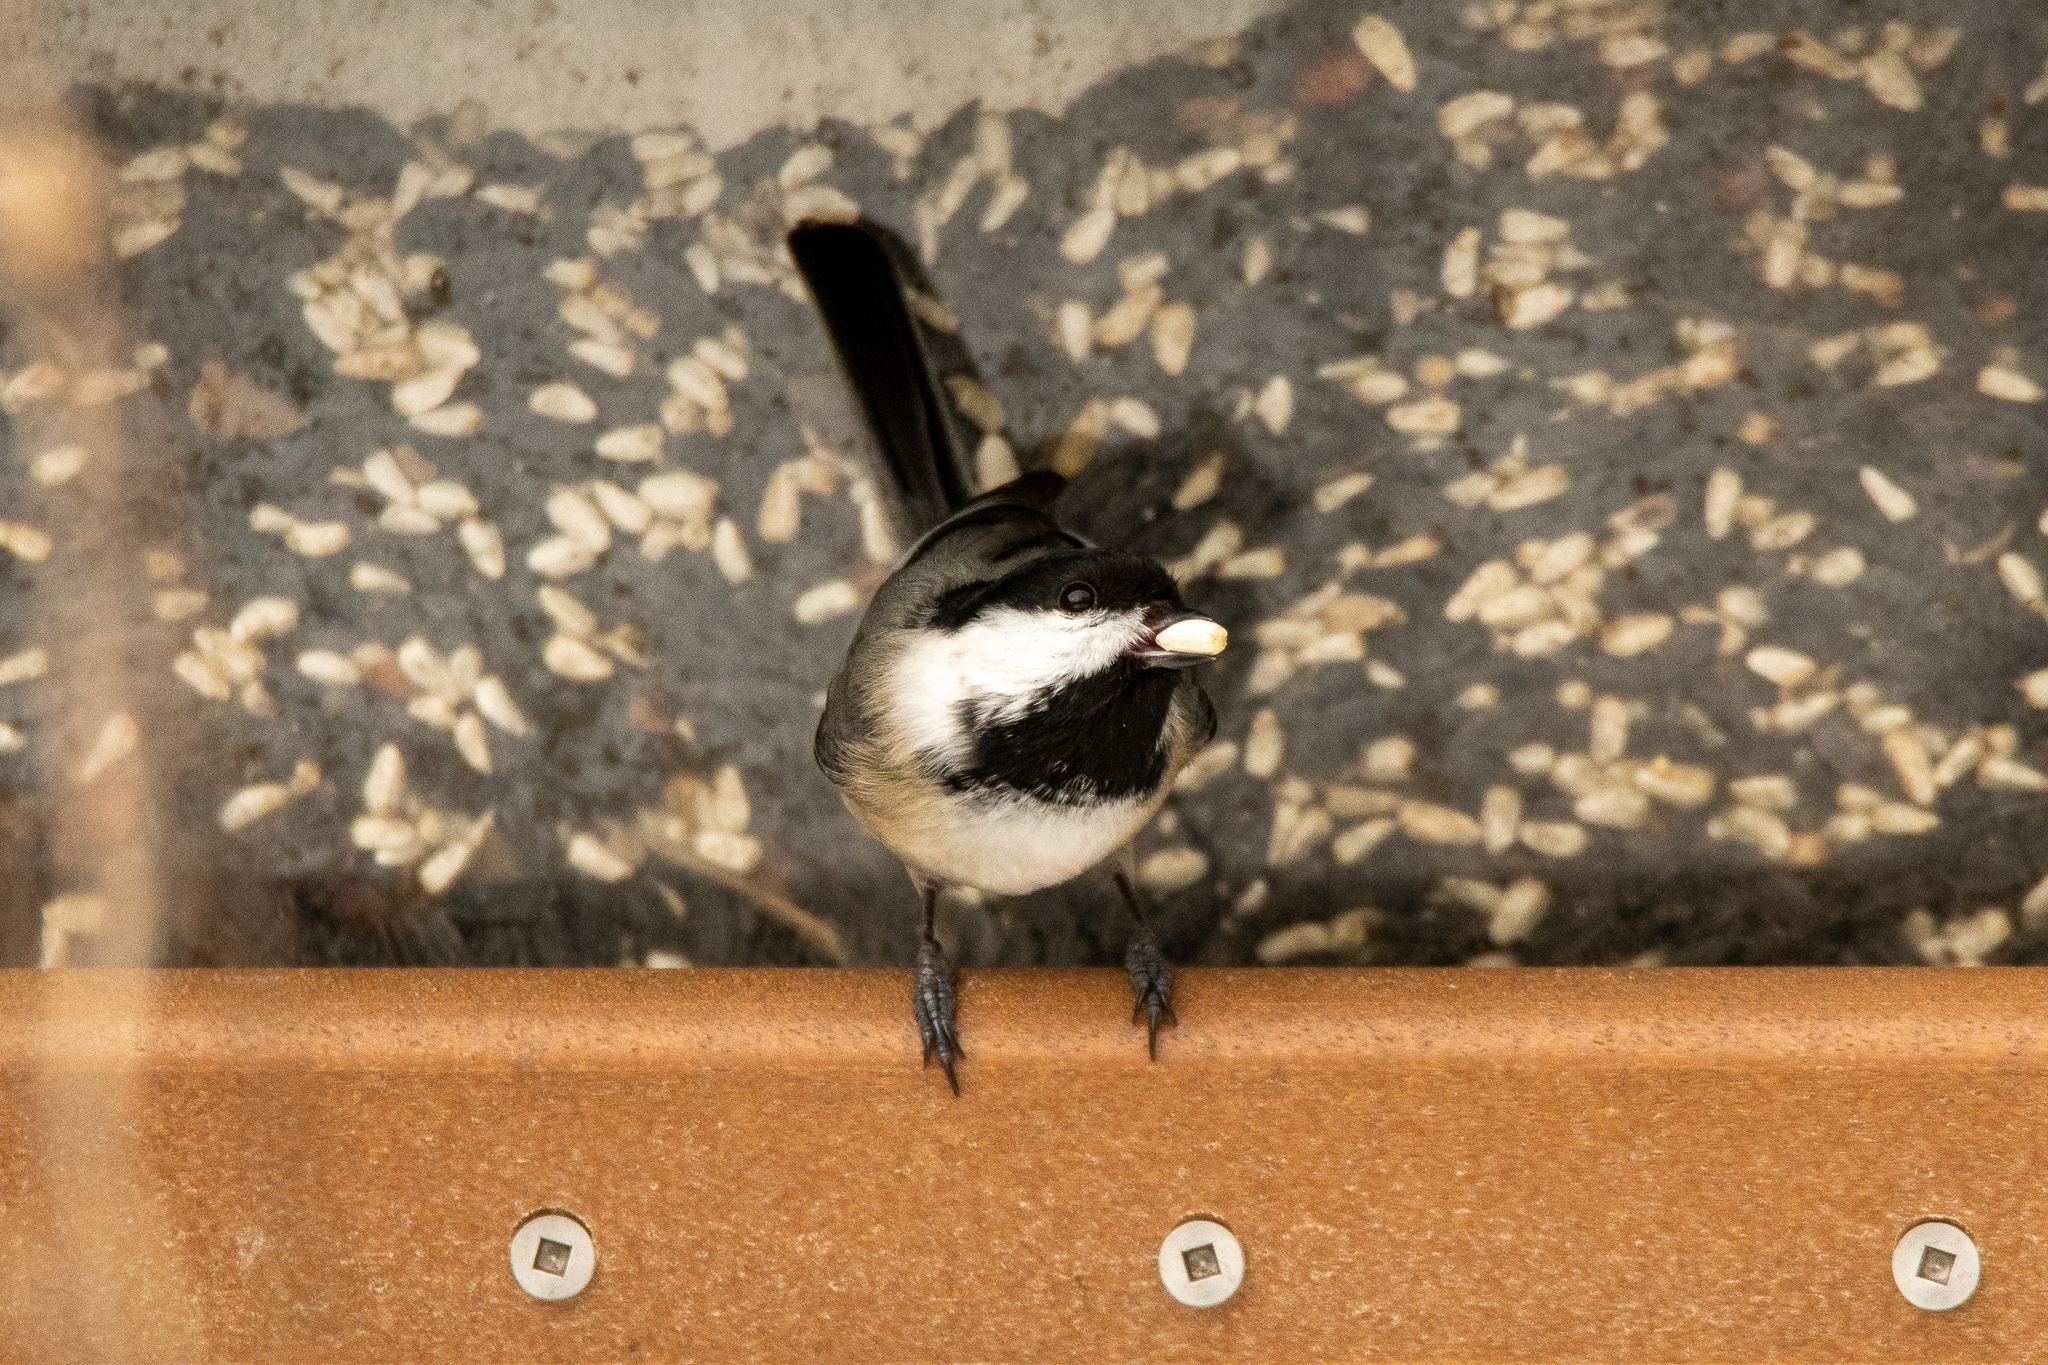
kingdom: Animalia
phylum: Chordata
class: Aves
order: Passeriformes
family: Paridae
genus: Poecile
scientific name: Poecile atricapillus
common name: Black-capped chickadee
